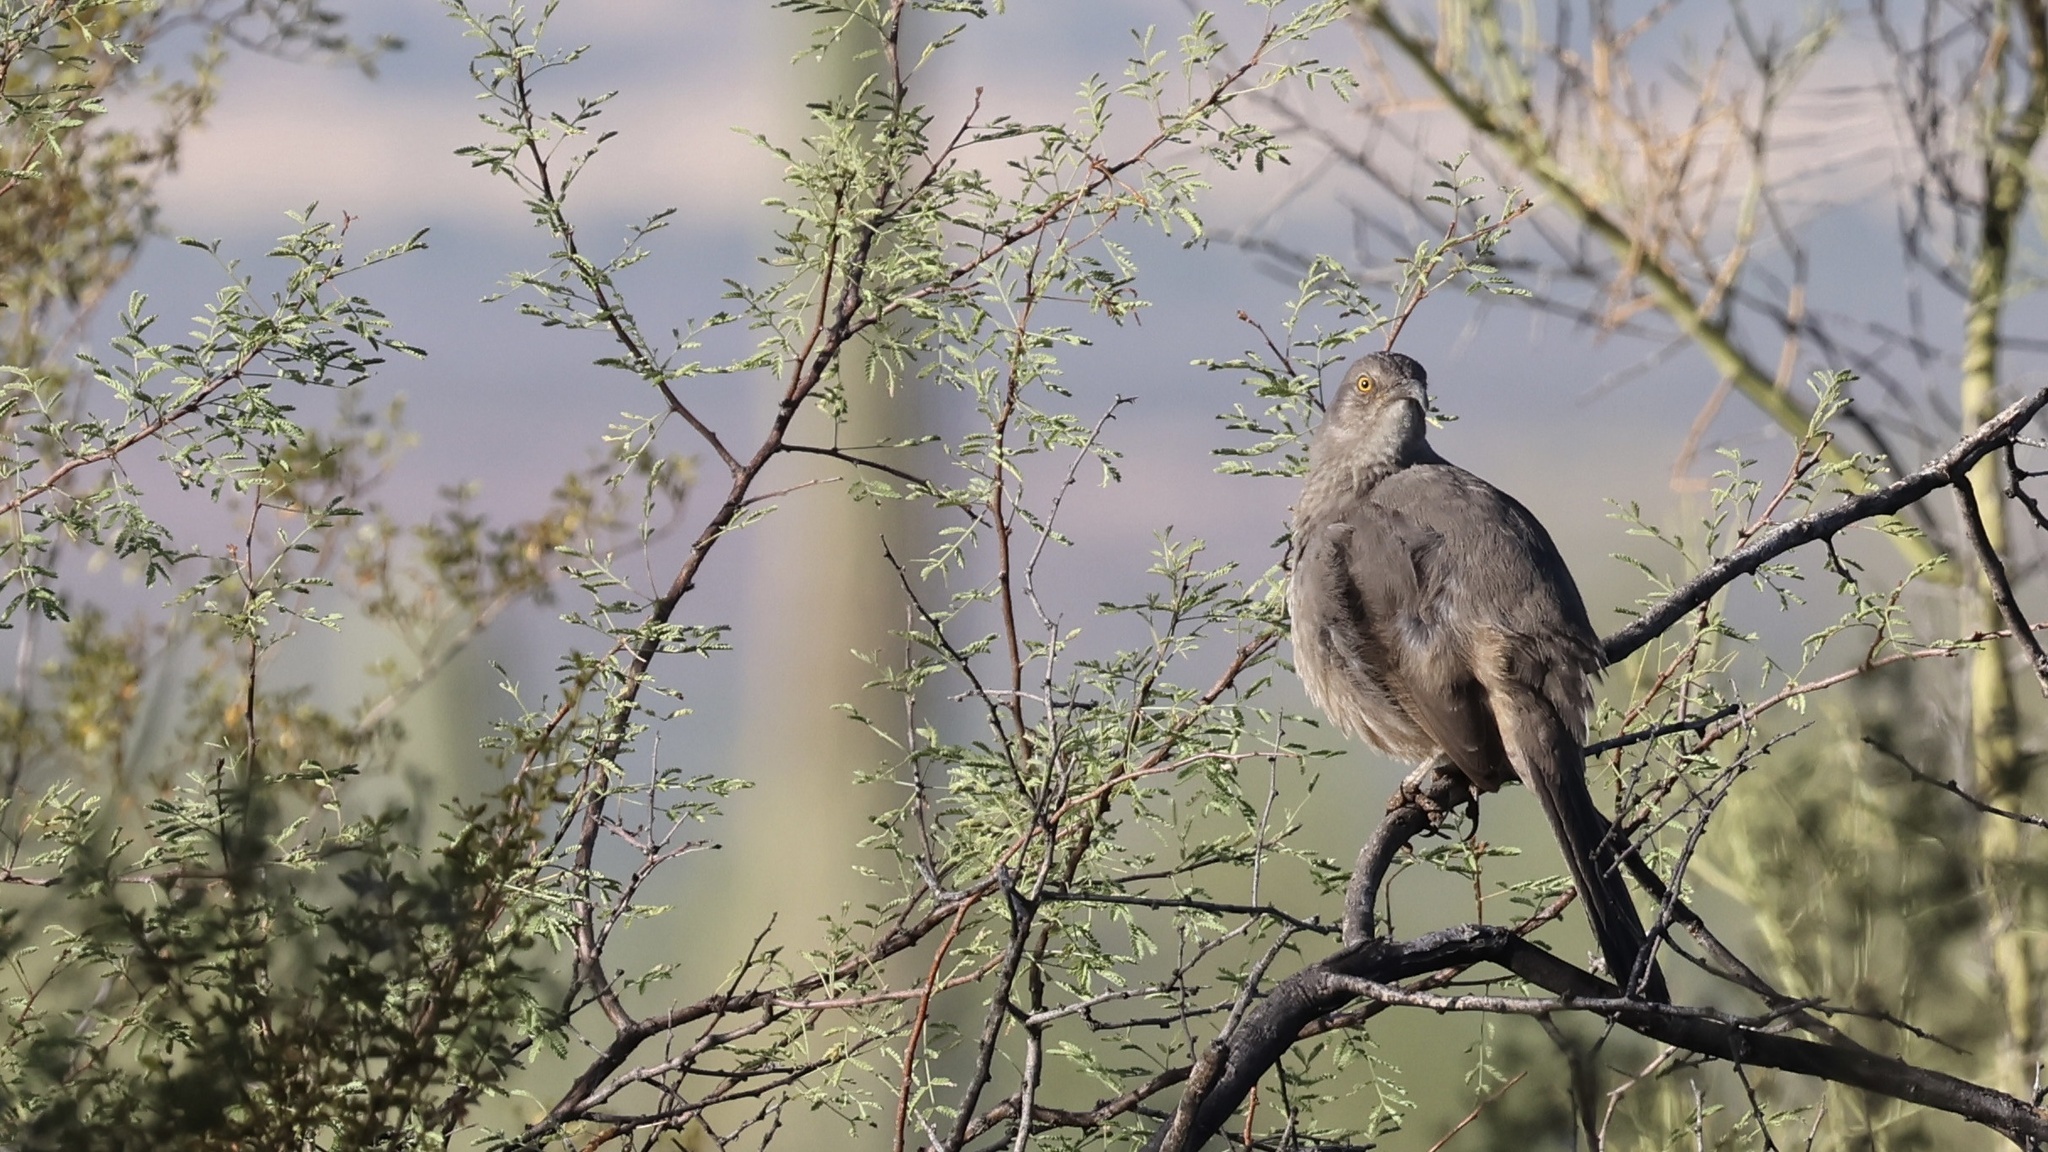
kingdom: Animalia
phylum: Chordata
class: Aves
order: Passeriformes
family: Mimidae
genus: Toxostoma
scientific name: Toxostoma curvirostre
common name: Curve-billed thrasher
